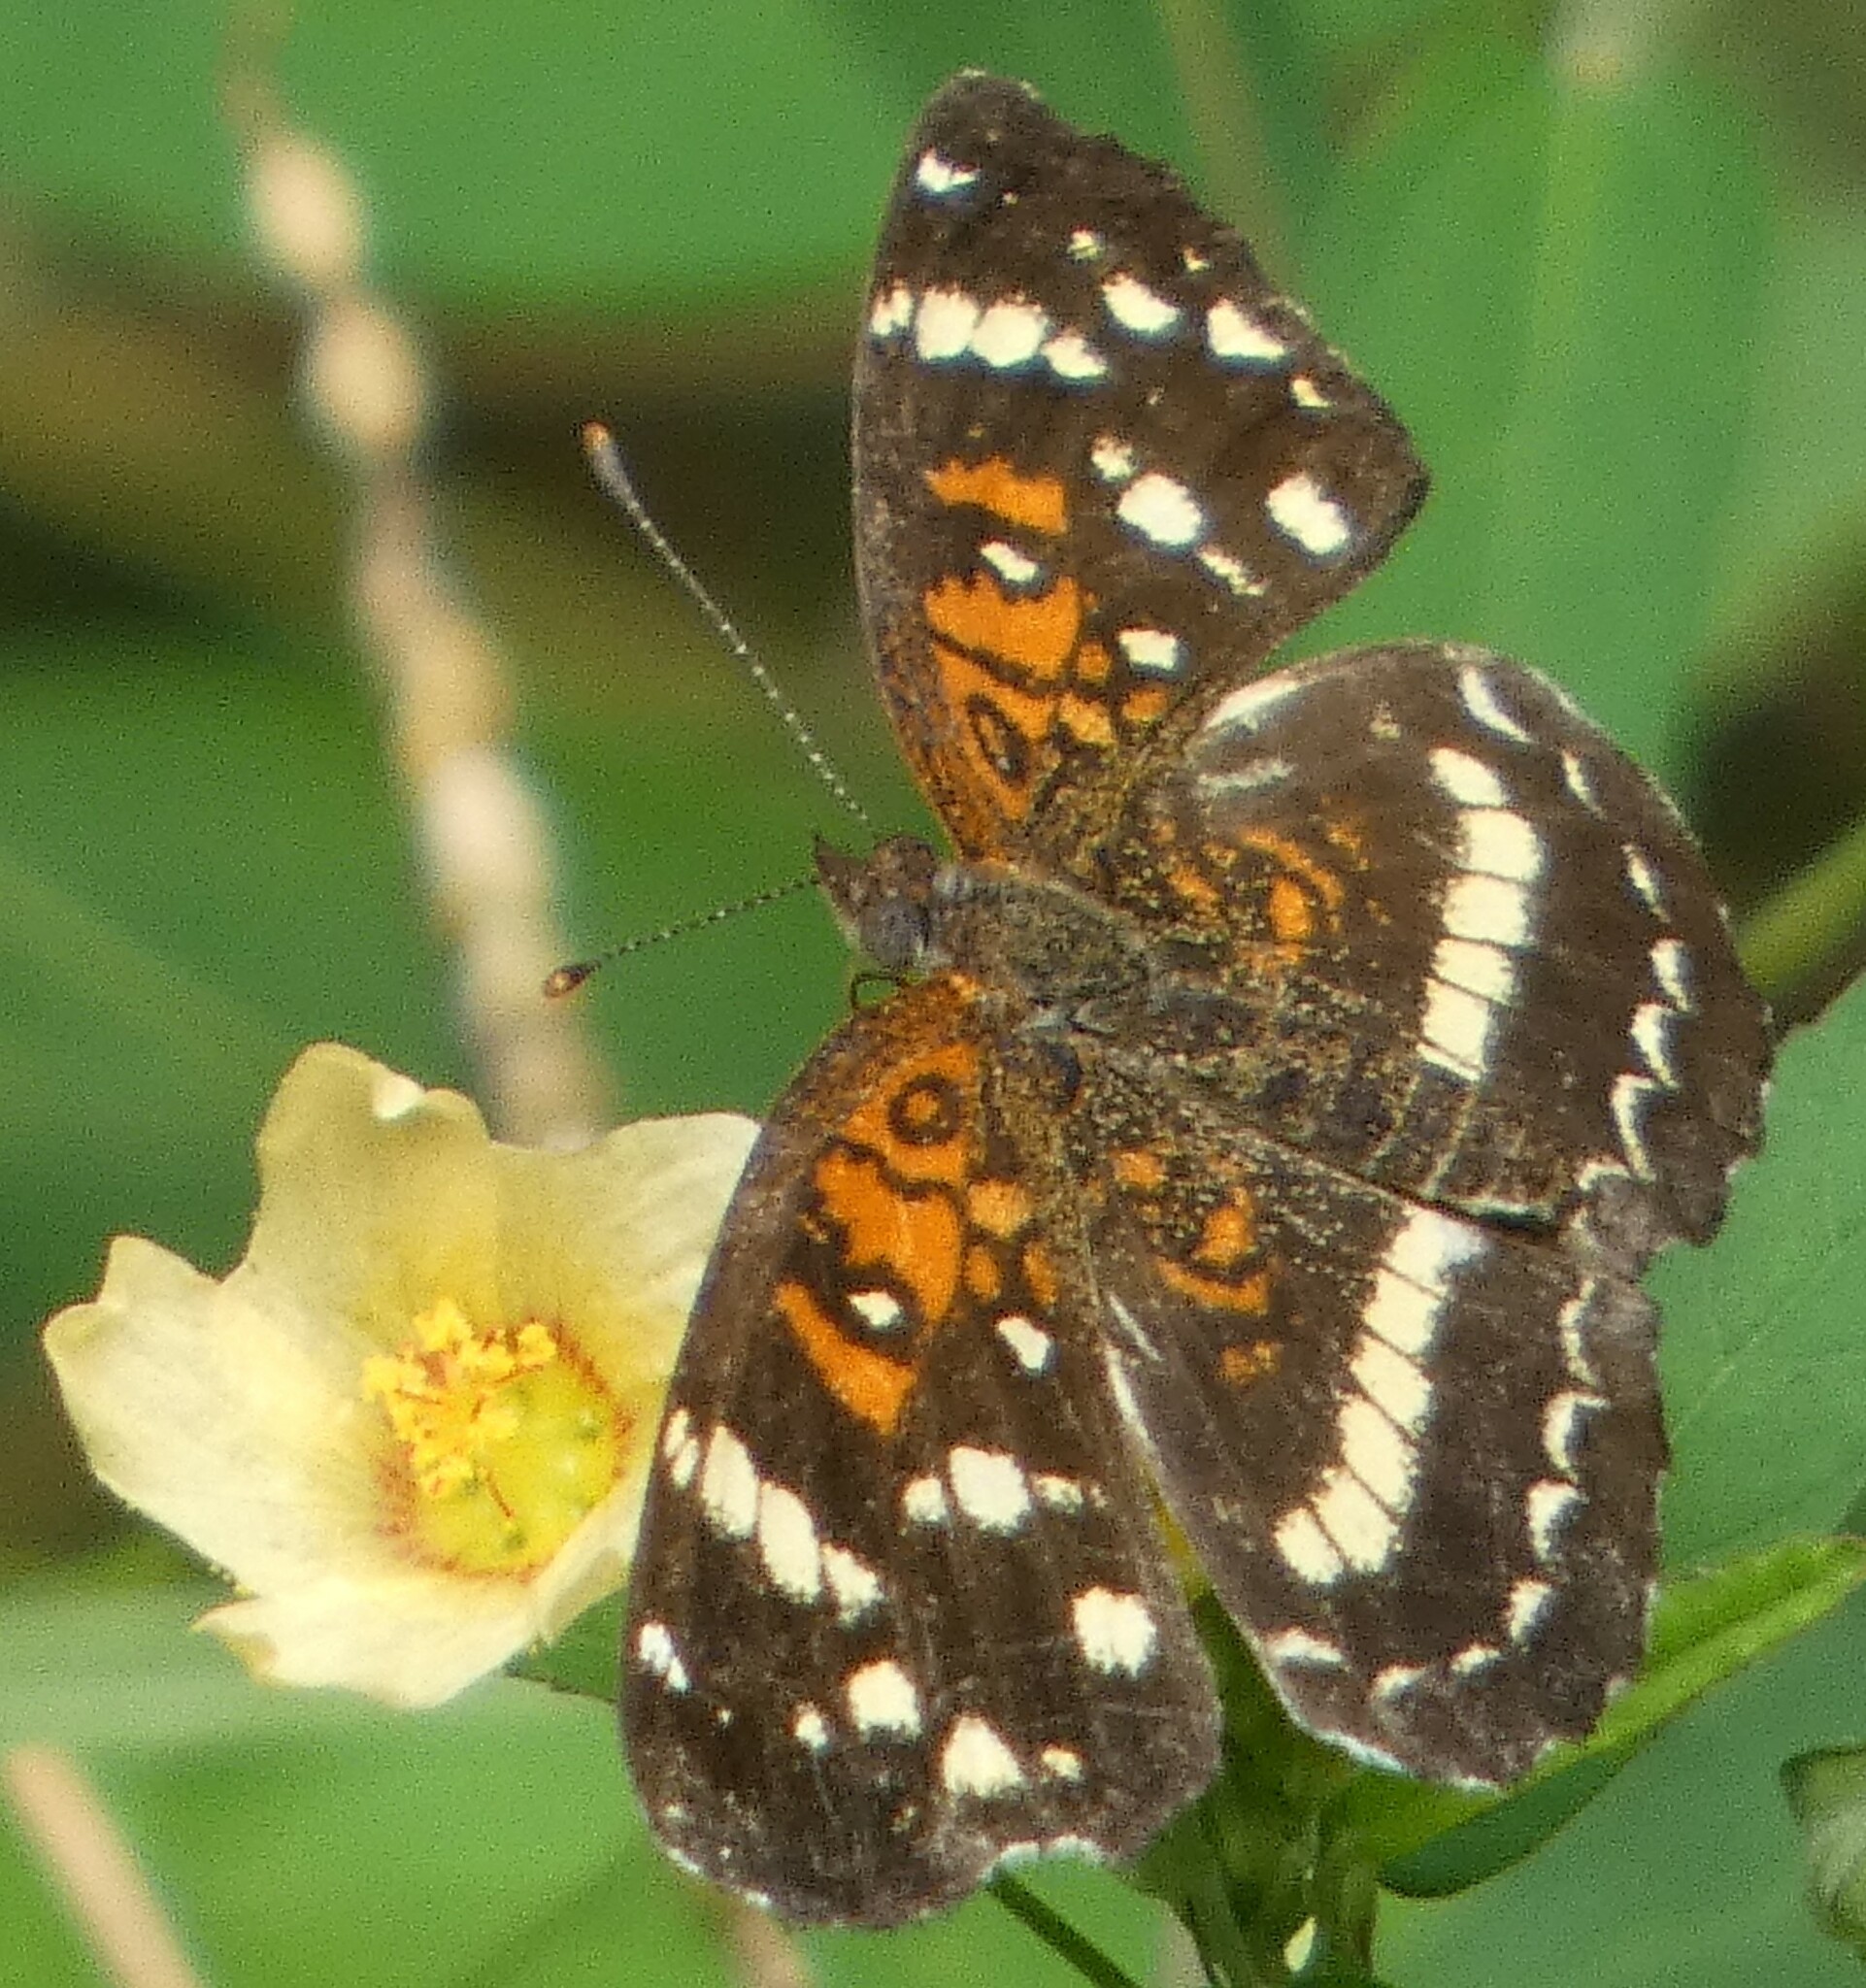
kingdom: Animalia
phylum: Arthropoda
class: Insecta
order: Lepidoptera
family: Nymphalidae
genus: Anthanassa
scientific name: Anthanassa texana
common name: Texan crescent
